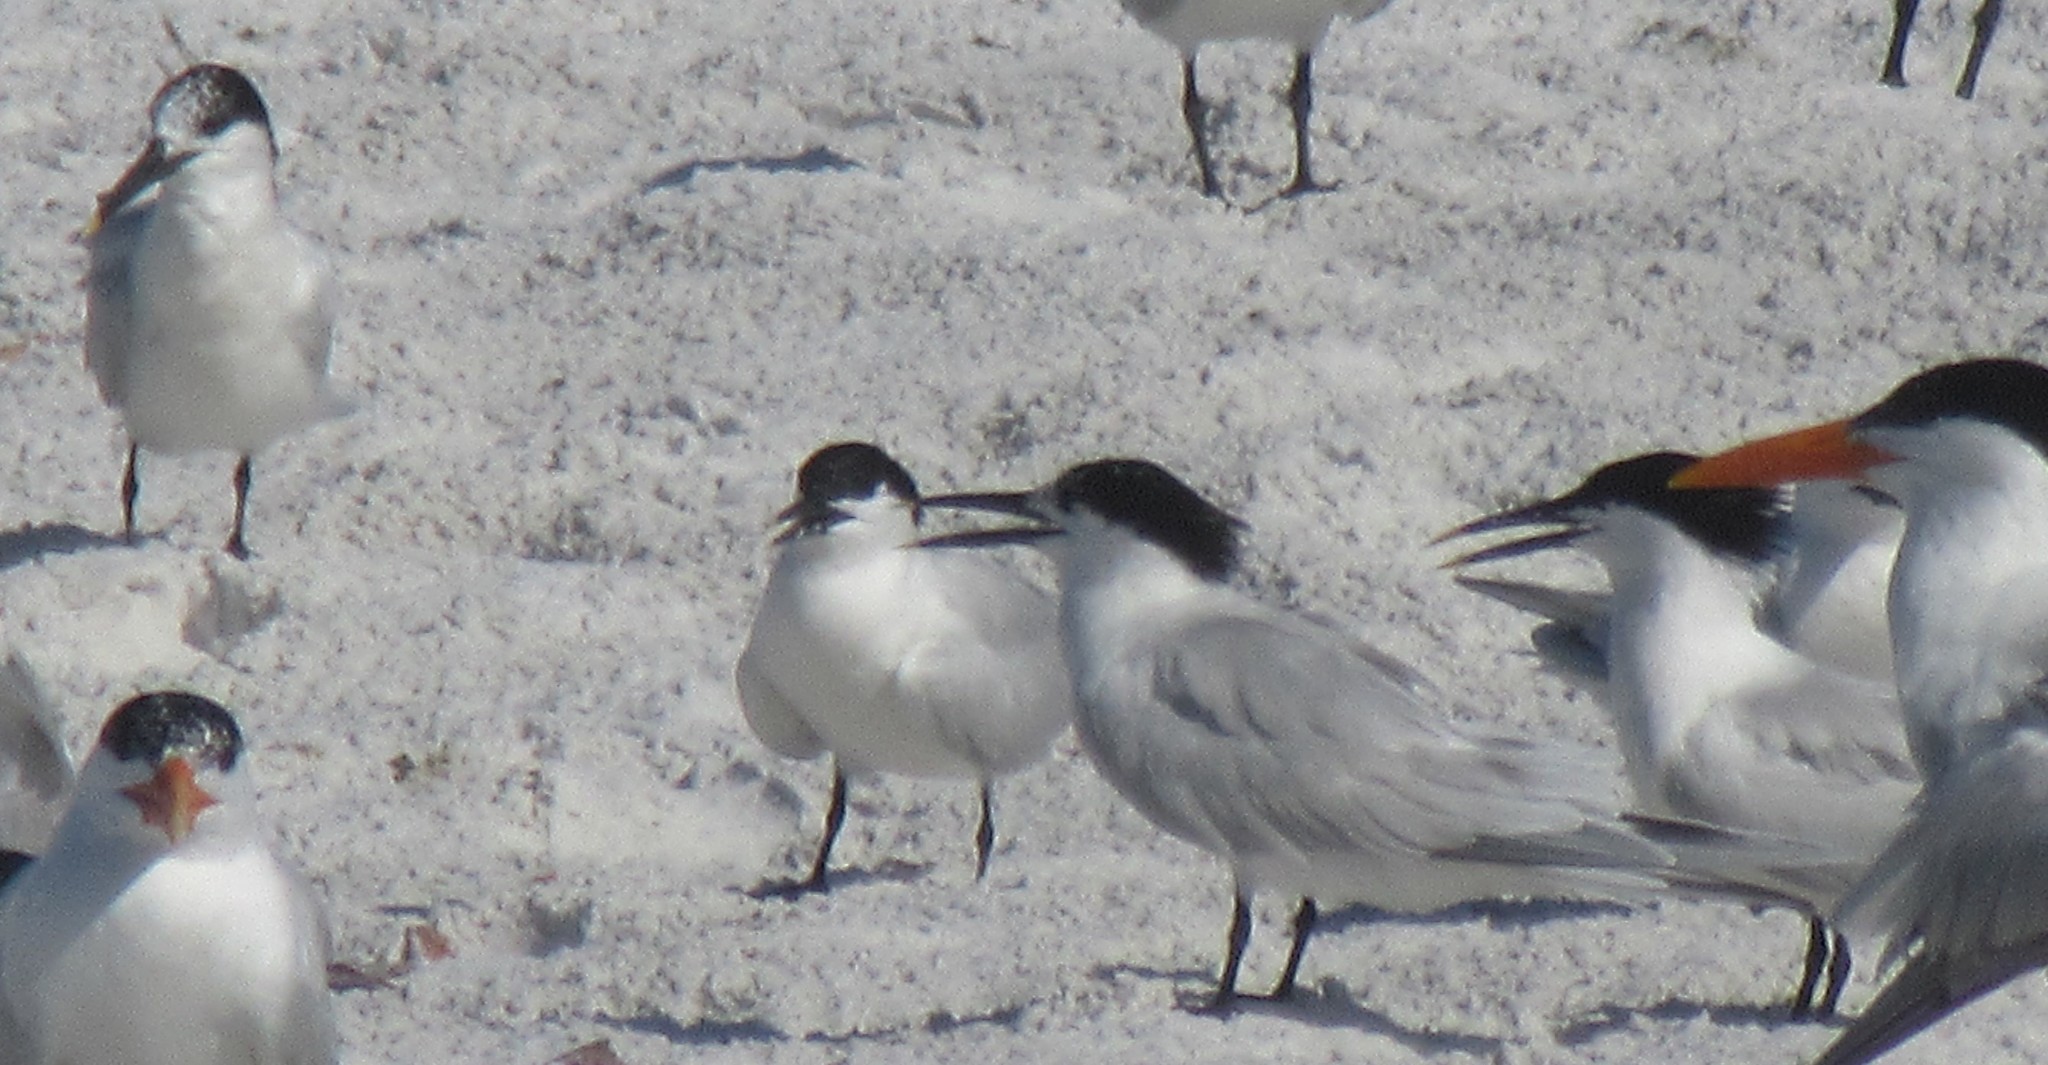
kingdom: Animalia
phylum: Chordata
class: Aves
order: Charadriiformes
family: Laridae
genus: Thalasseus
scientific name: Thalasseus sandvicensis
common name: Sandwich tern
